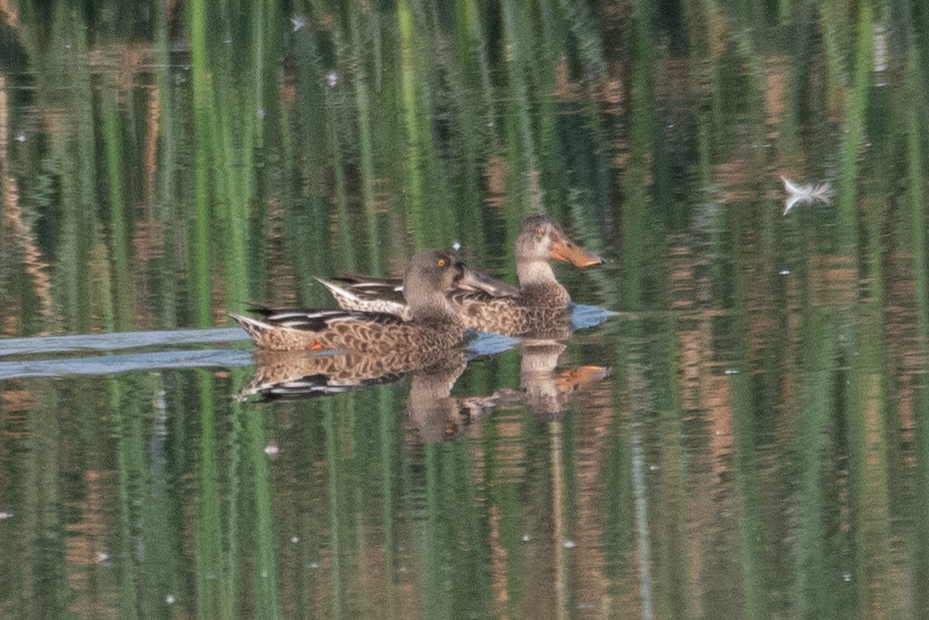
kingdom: Animalia
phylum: Chordata
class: Aves
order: Anseriformes
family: Anatidae
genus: Spatula
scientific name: Spatula clypeata
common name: Northern shoveler
